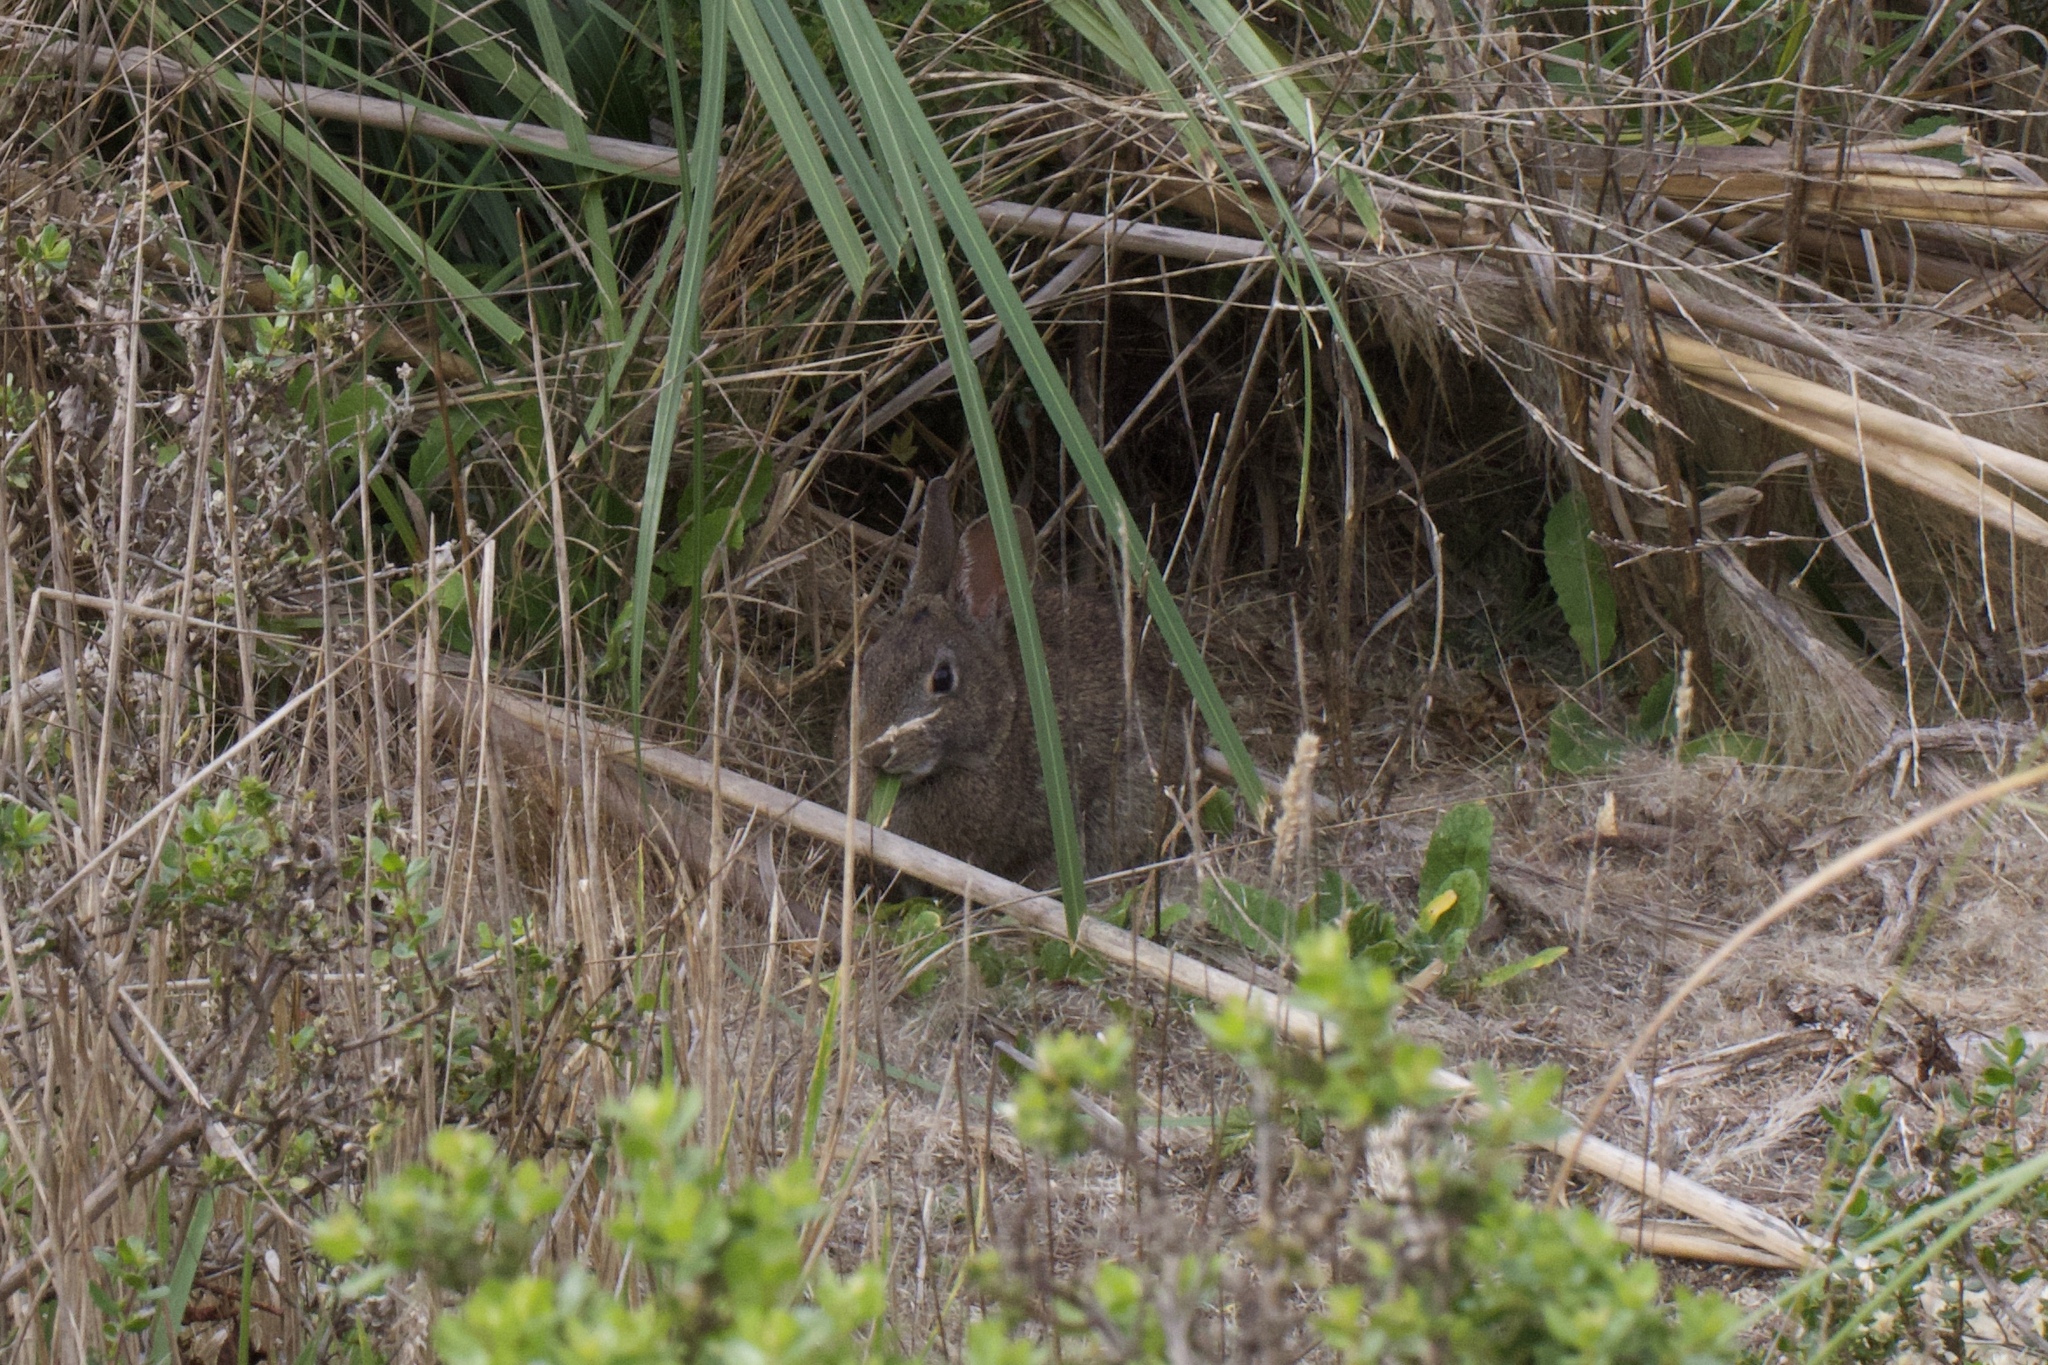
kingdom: Animalia
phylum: Chordata
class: Mammalia
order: Lagomorpha
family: Leporidae
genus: Sylvilagus
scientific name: Sylvilagus bachmani
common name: Brush rabbit
